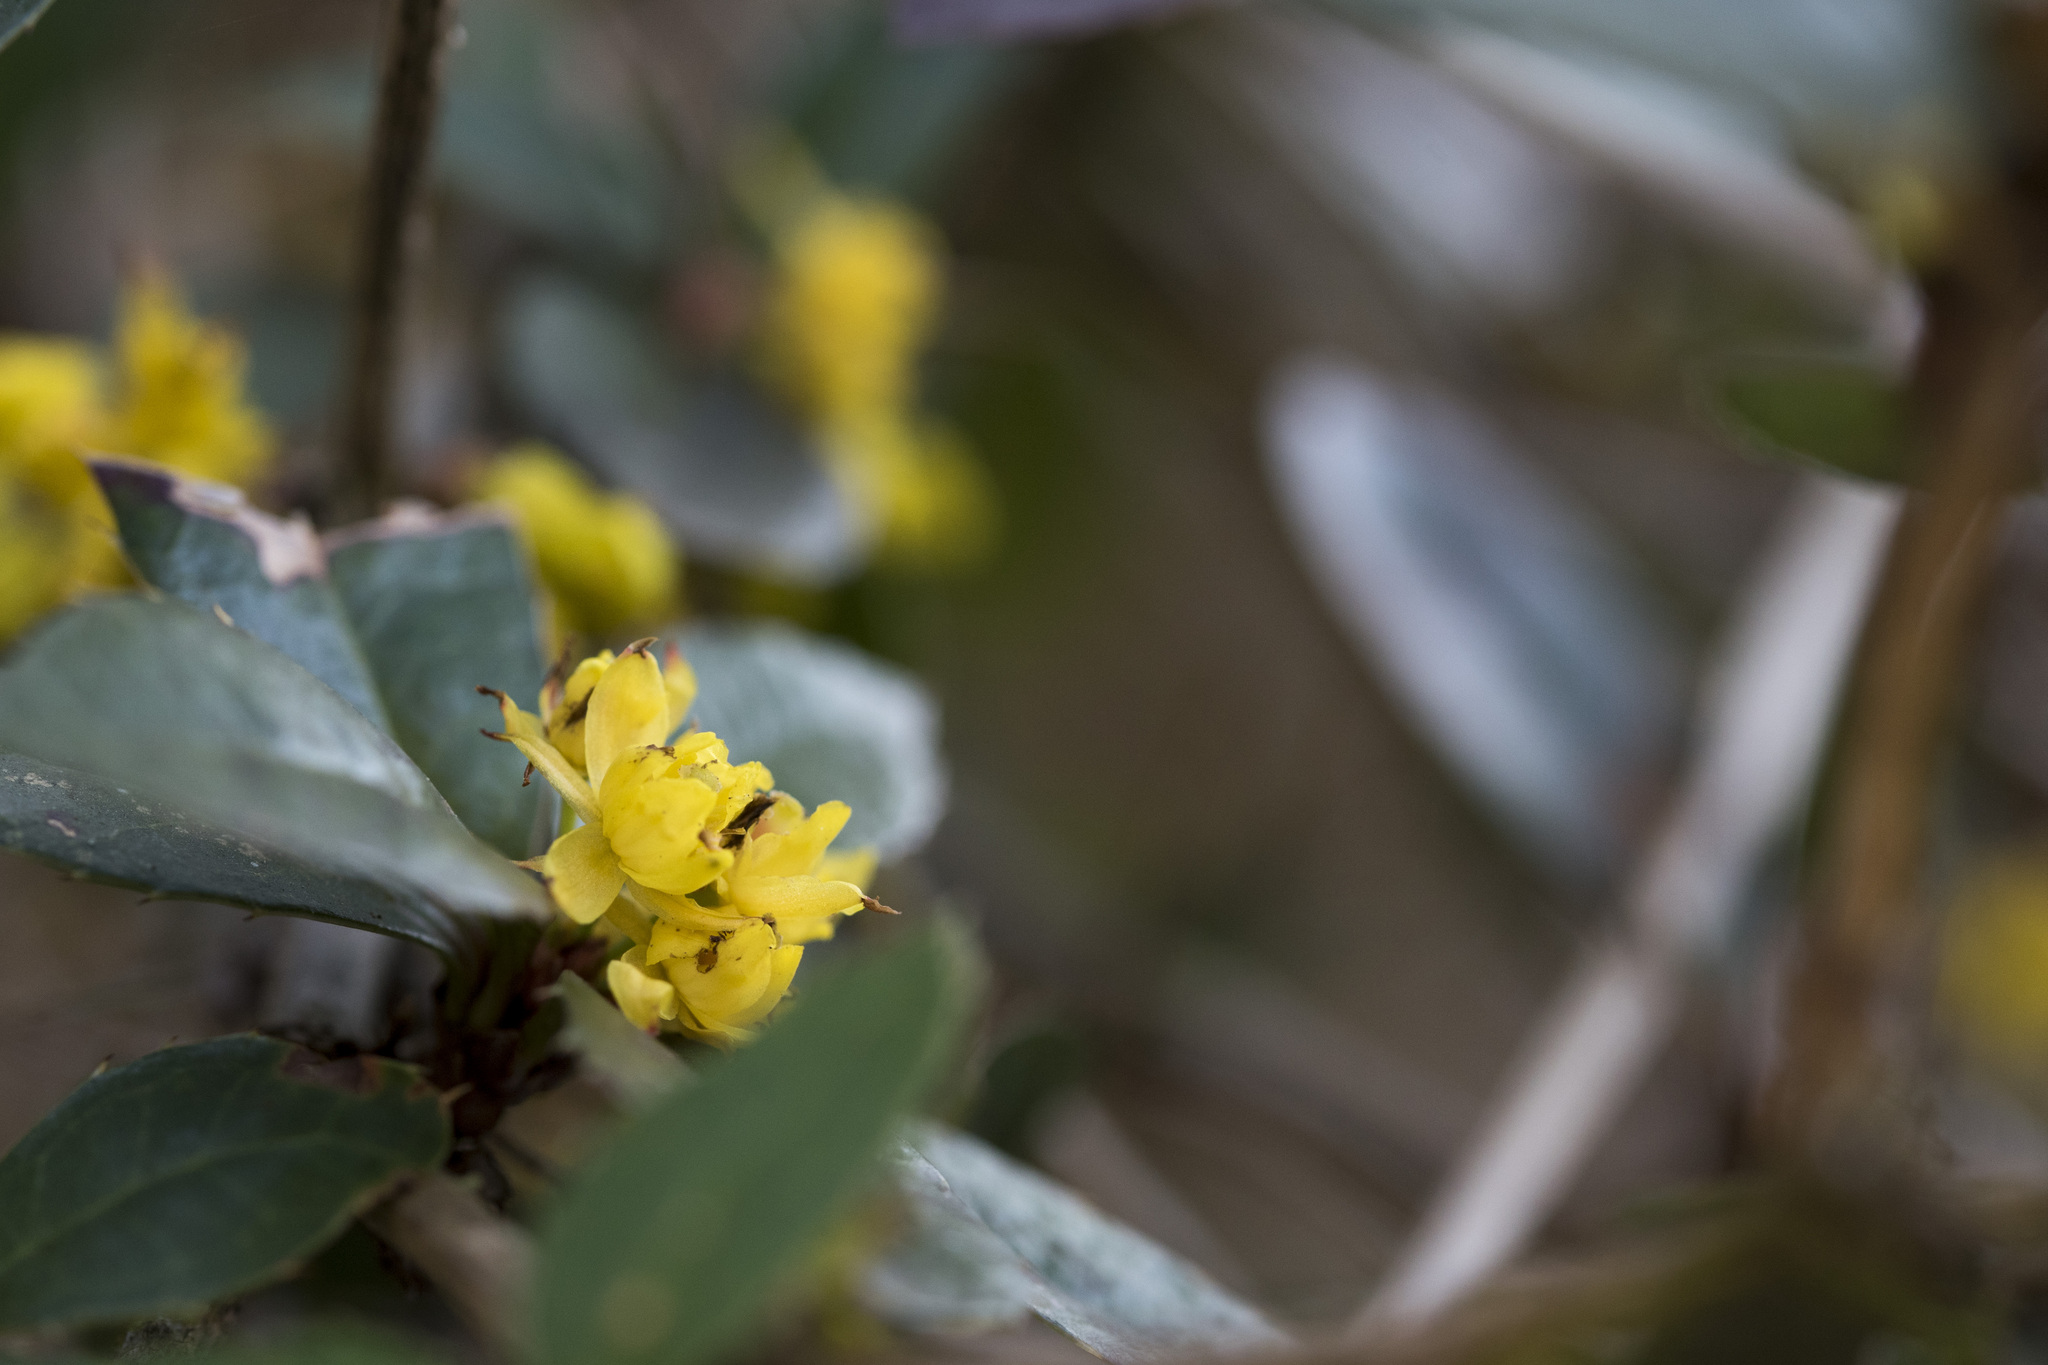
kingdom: Plantae
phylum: Tracheophyta
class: Magnoliopsida
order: Ranunculales
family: Berberidaceae
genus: Berberis
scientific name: Berberis kawakamii
